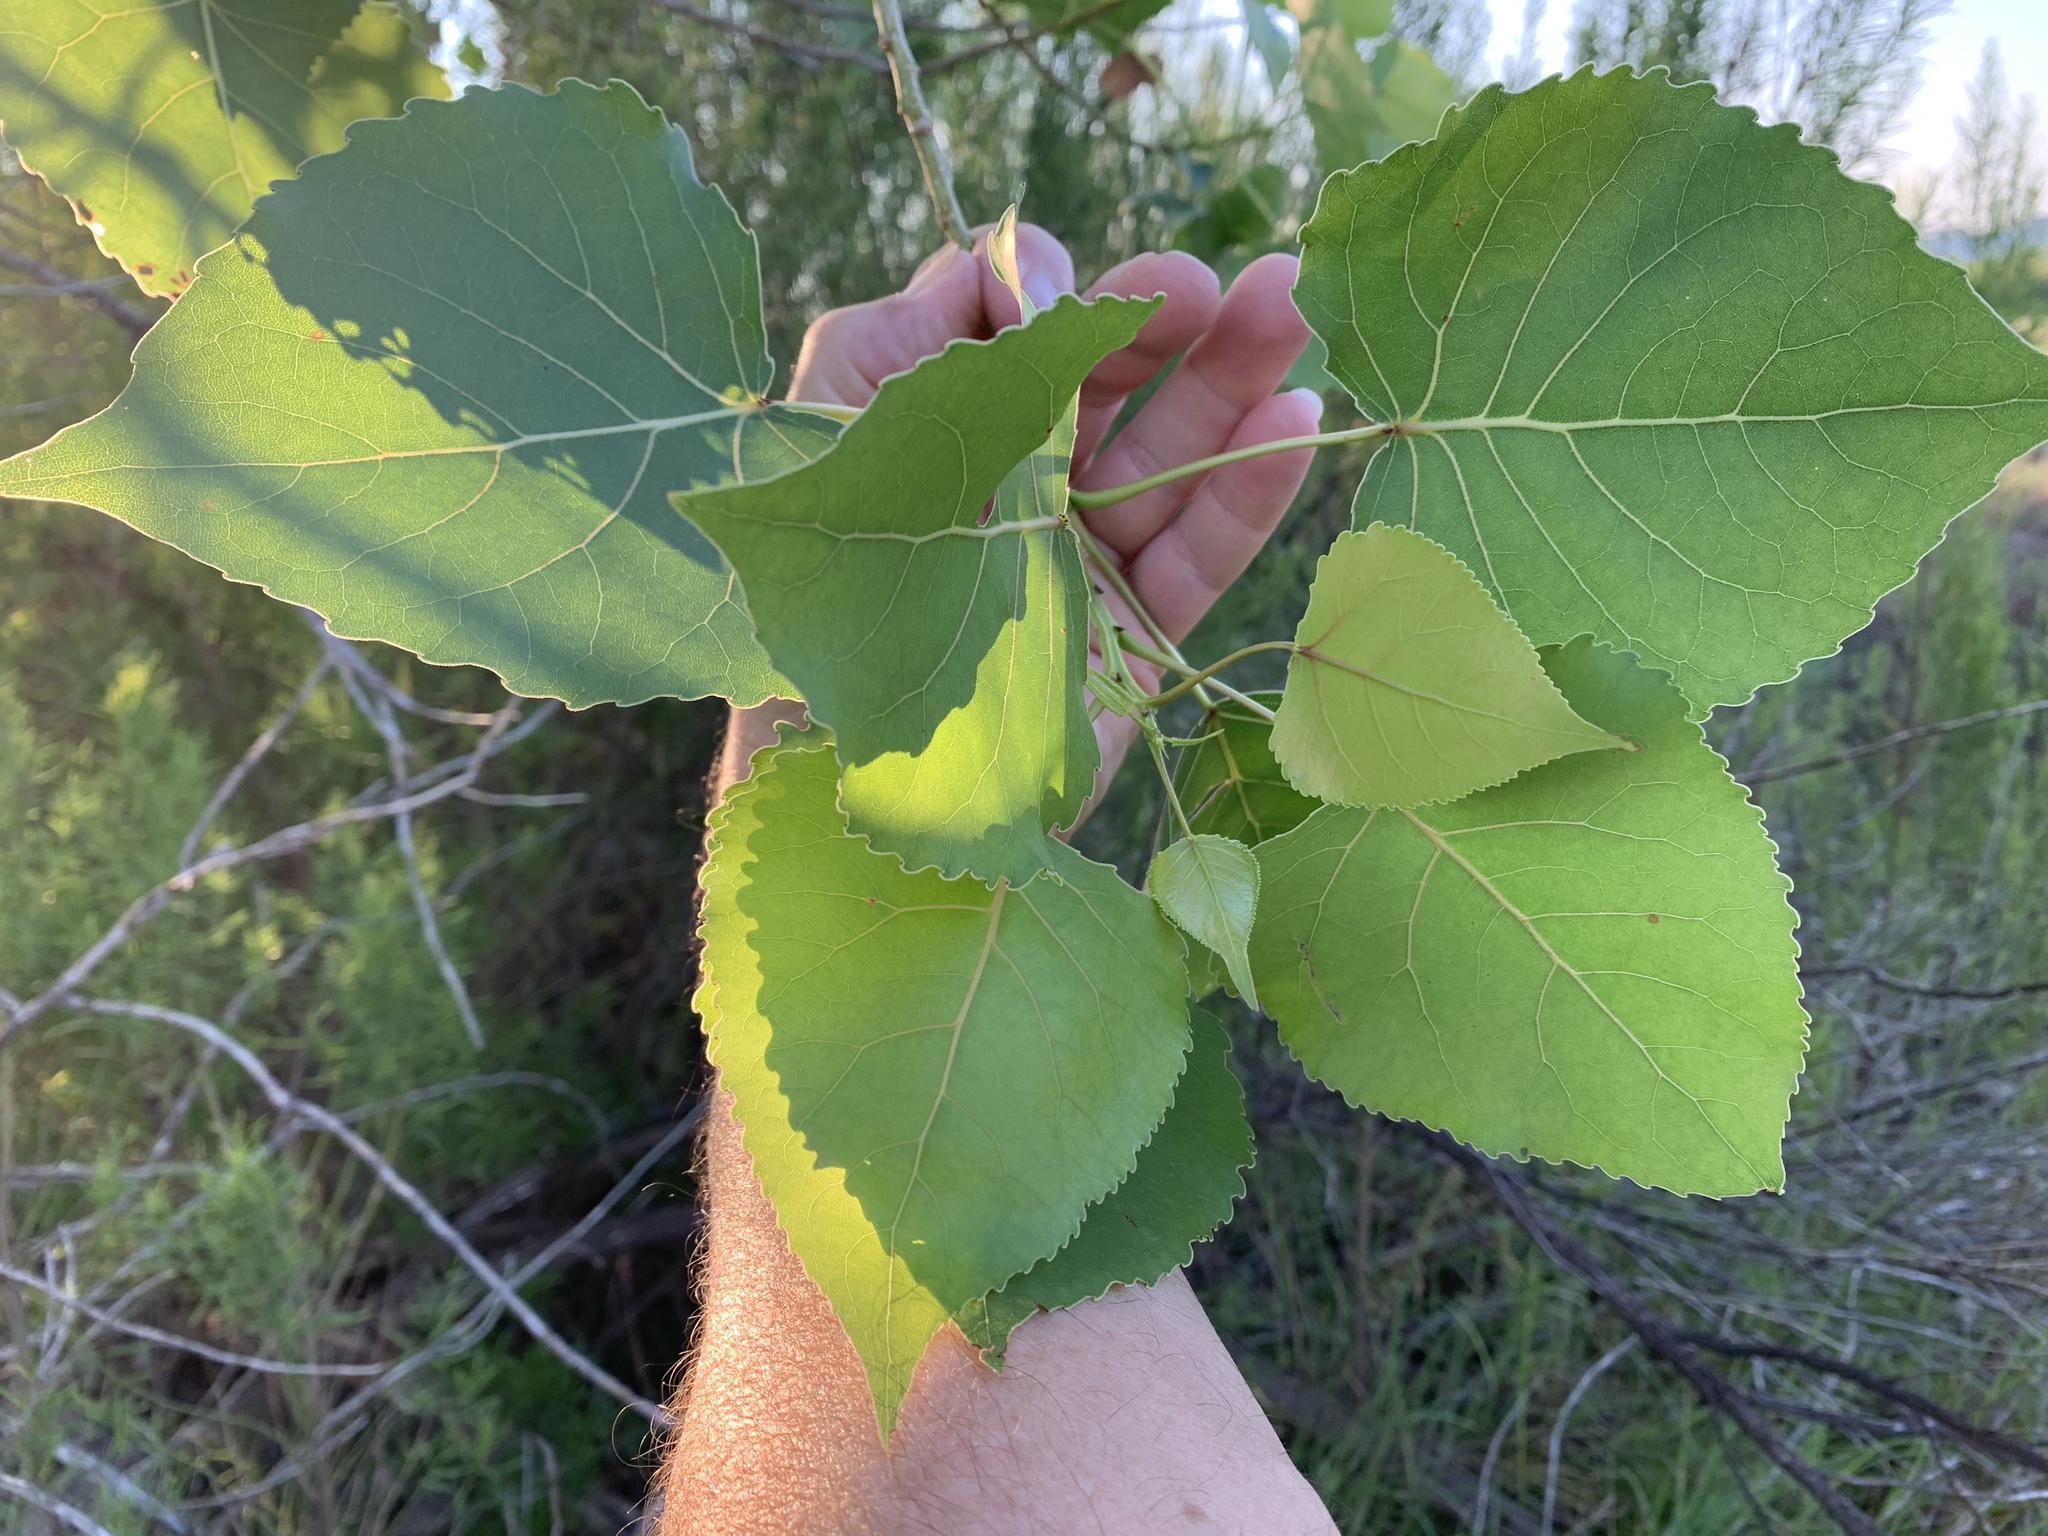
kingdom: Plantae
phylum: Tracheophyta
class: Magnoliopsida
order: Malpighiales
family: Salicaceae
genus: Populus
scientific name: Populus deltoides
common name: Eastern cottonwood
